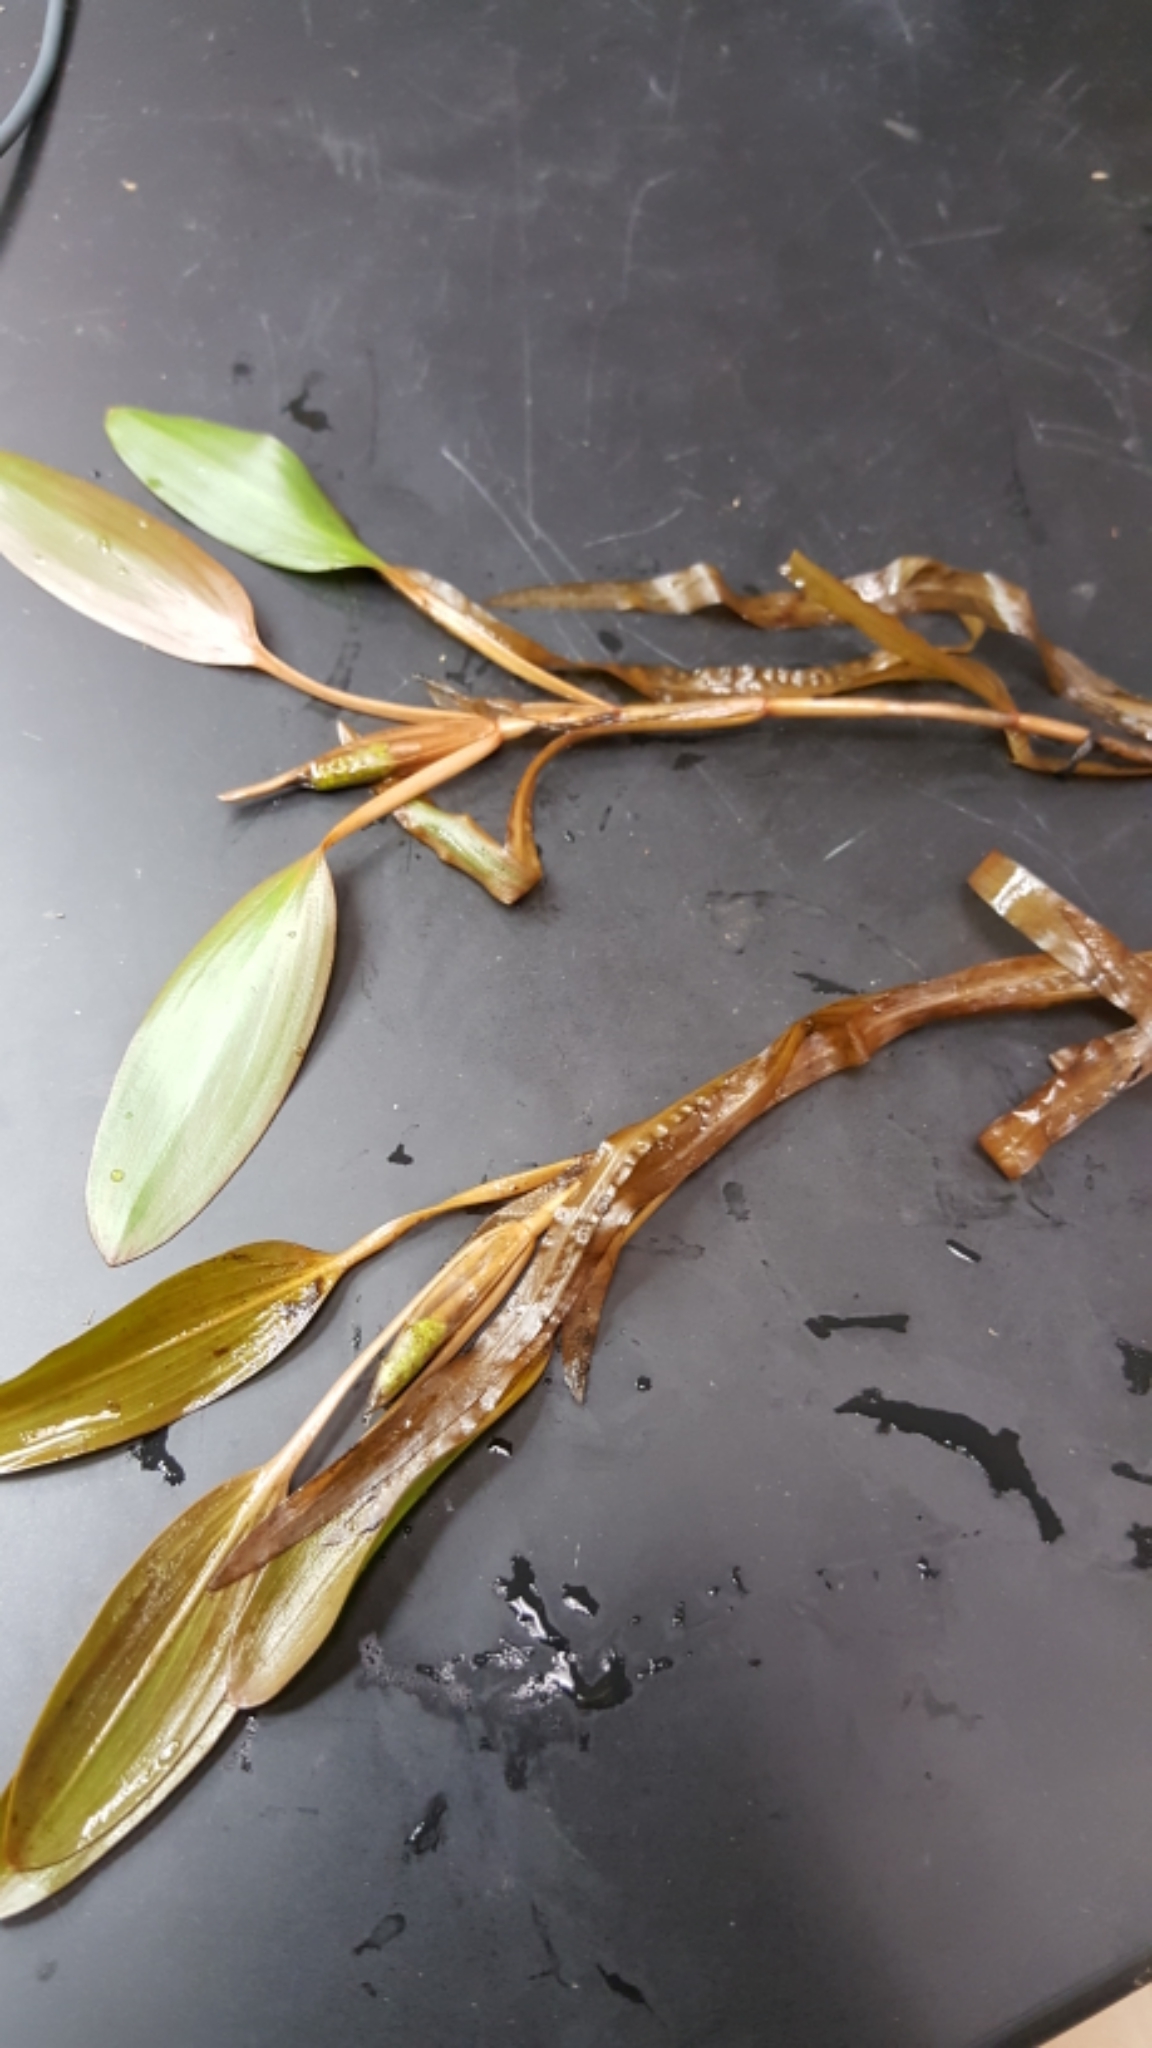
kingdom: Plantae
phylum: Tracheophyta
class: Liliopsida
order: Alismatales
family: Potamogetonaceae
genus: Potamogeton
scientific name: Potamogeton epihydrus
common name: American pondweed
